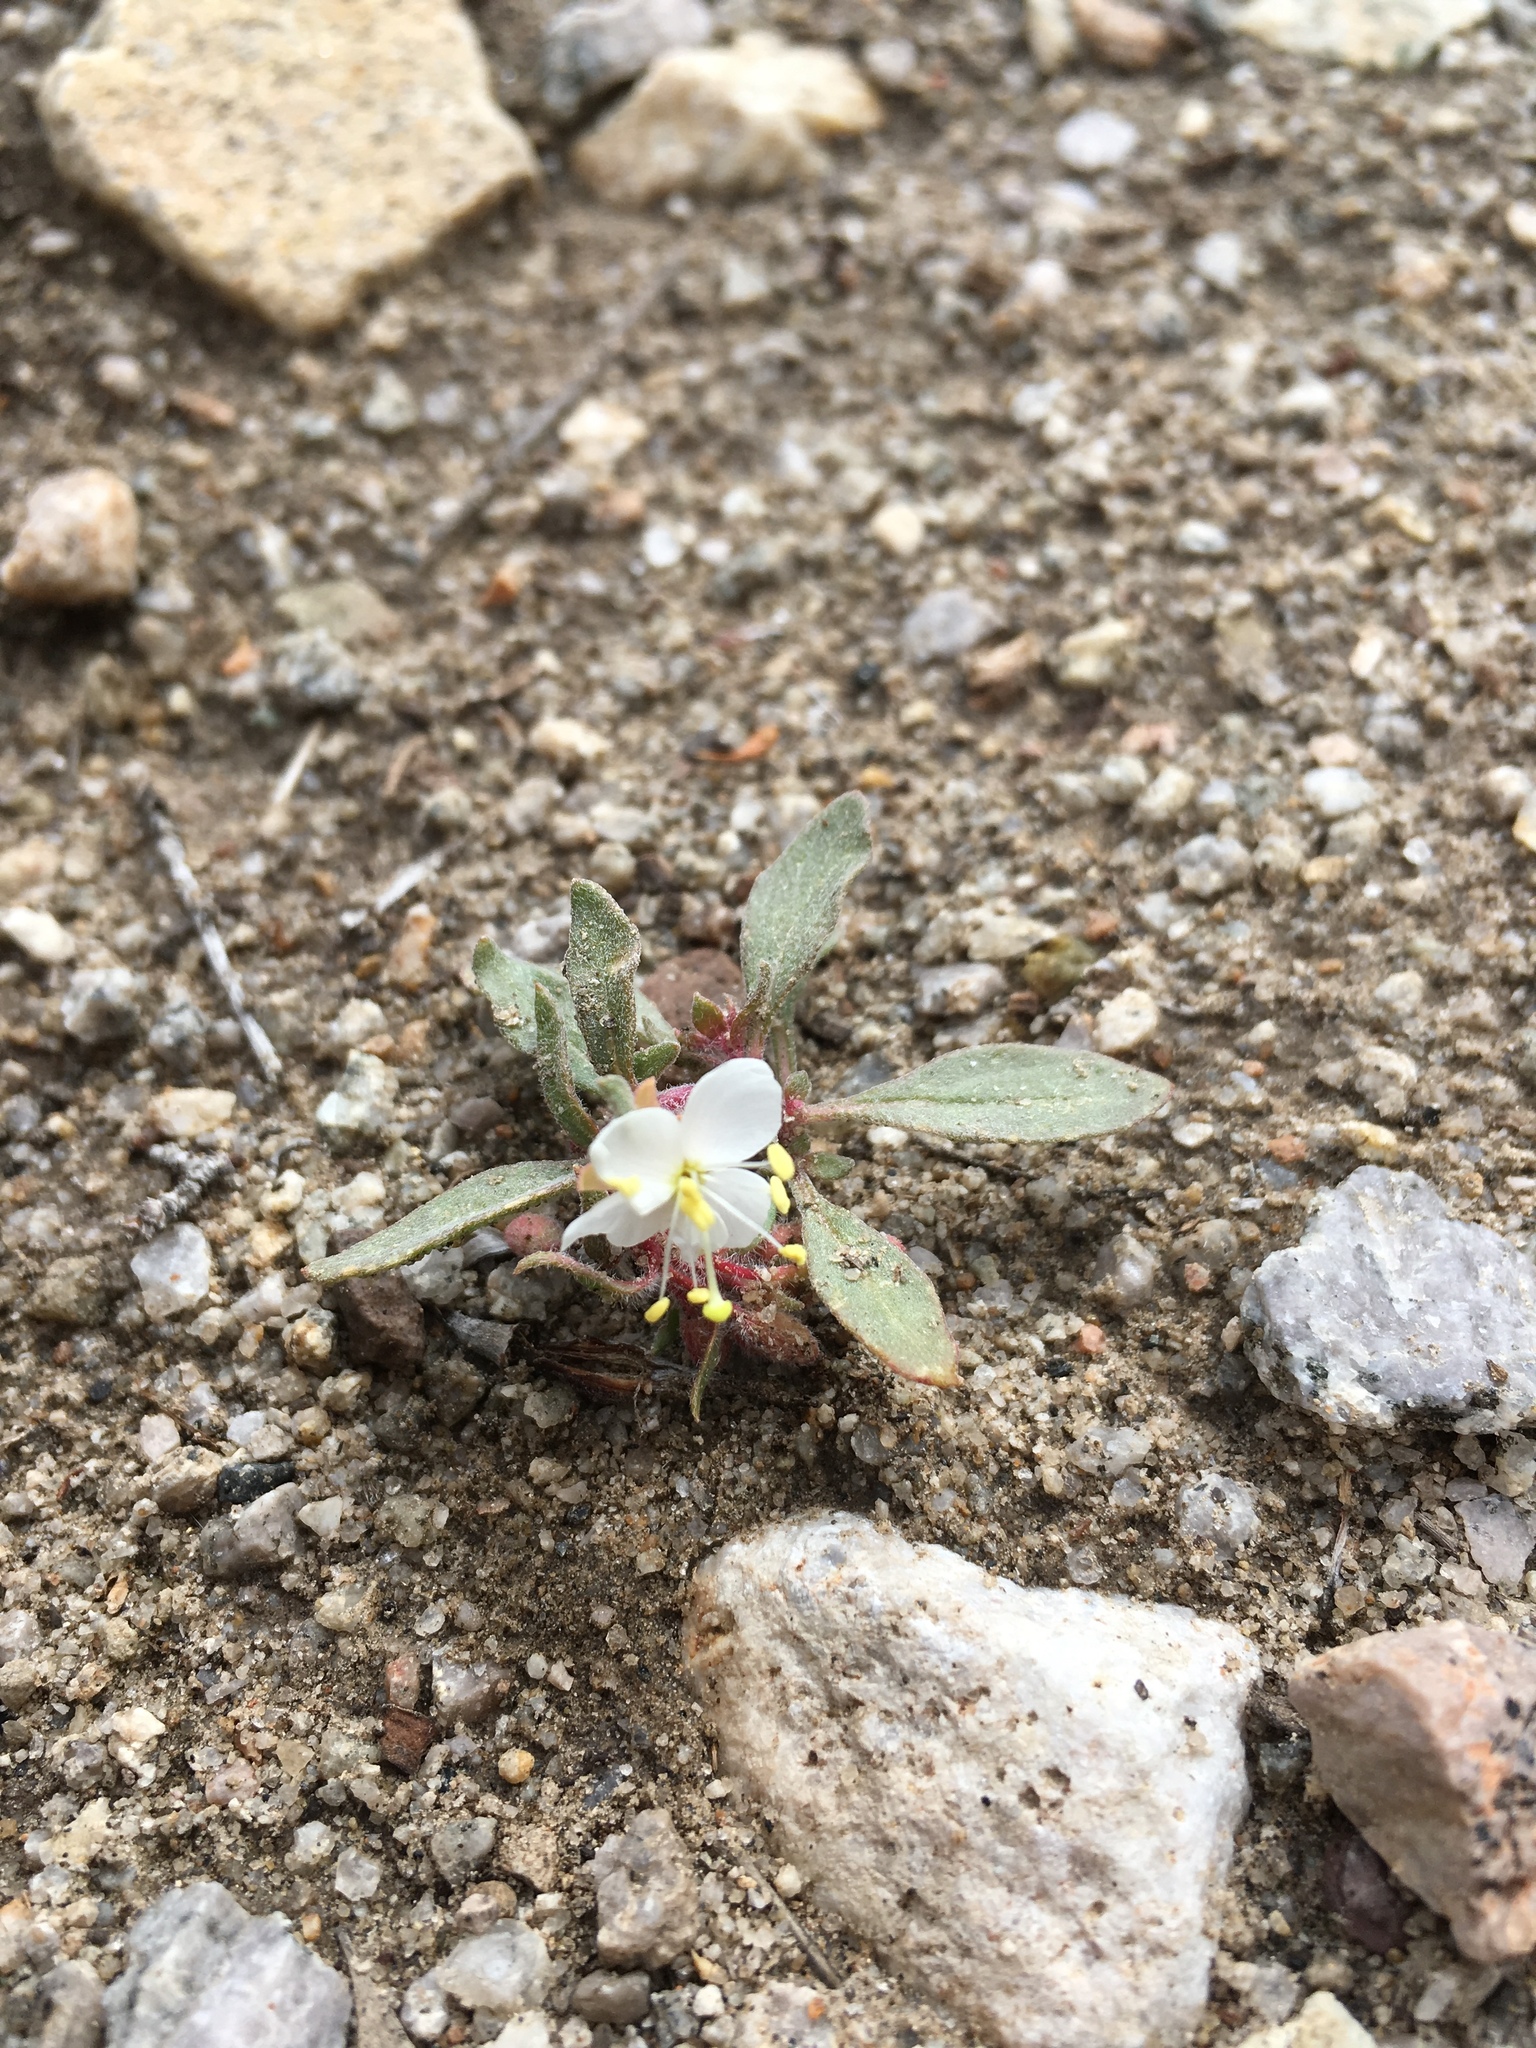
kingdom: Plantae
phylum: Tracheophyta
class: Magnoliopsida
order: Myrtales
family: Onagraceae
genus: Eremothera
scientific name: Eremothera boothii
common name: Booth's evening primrose
